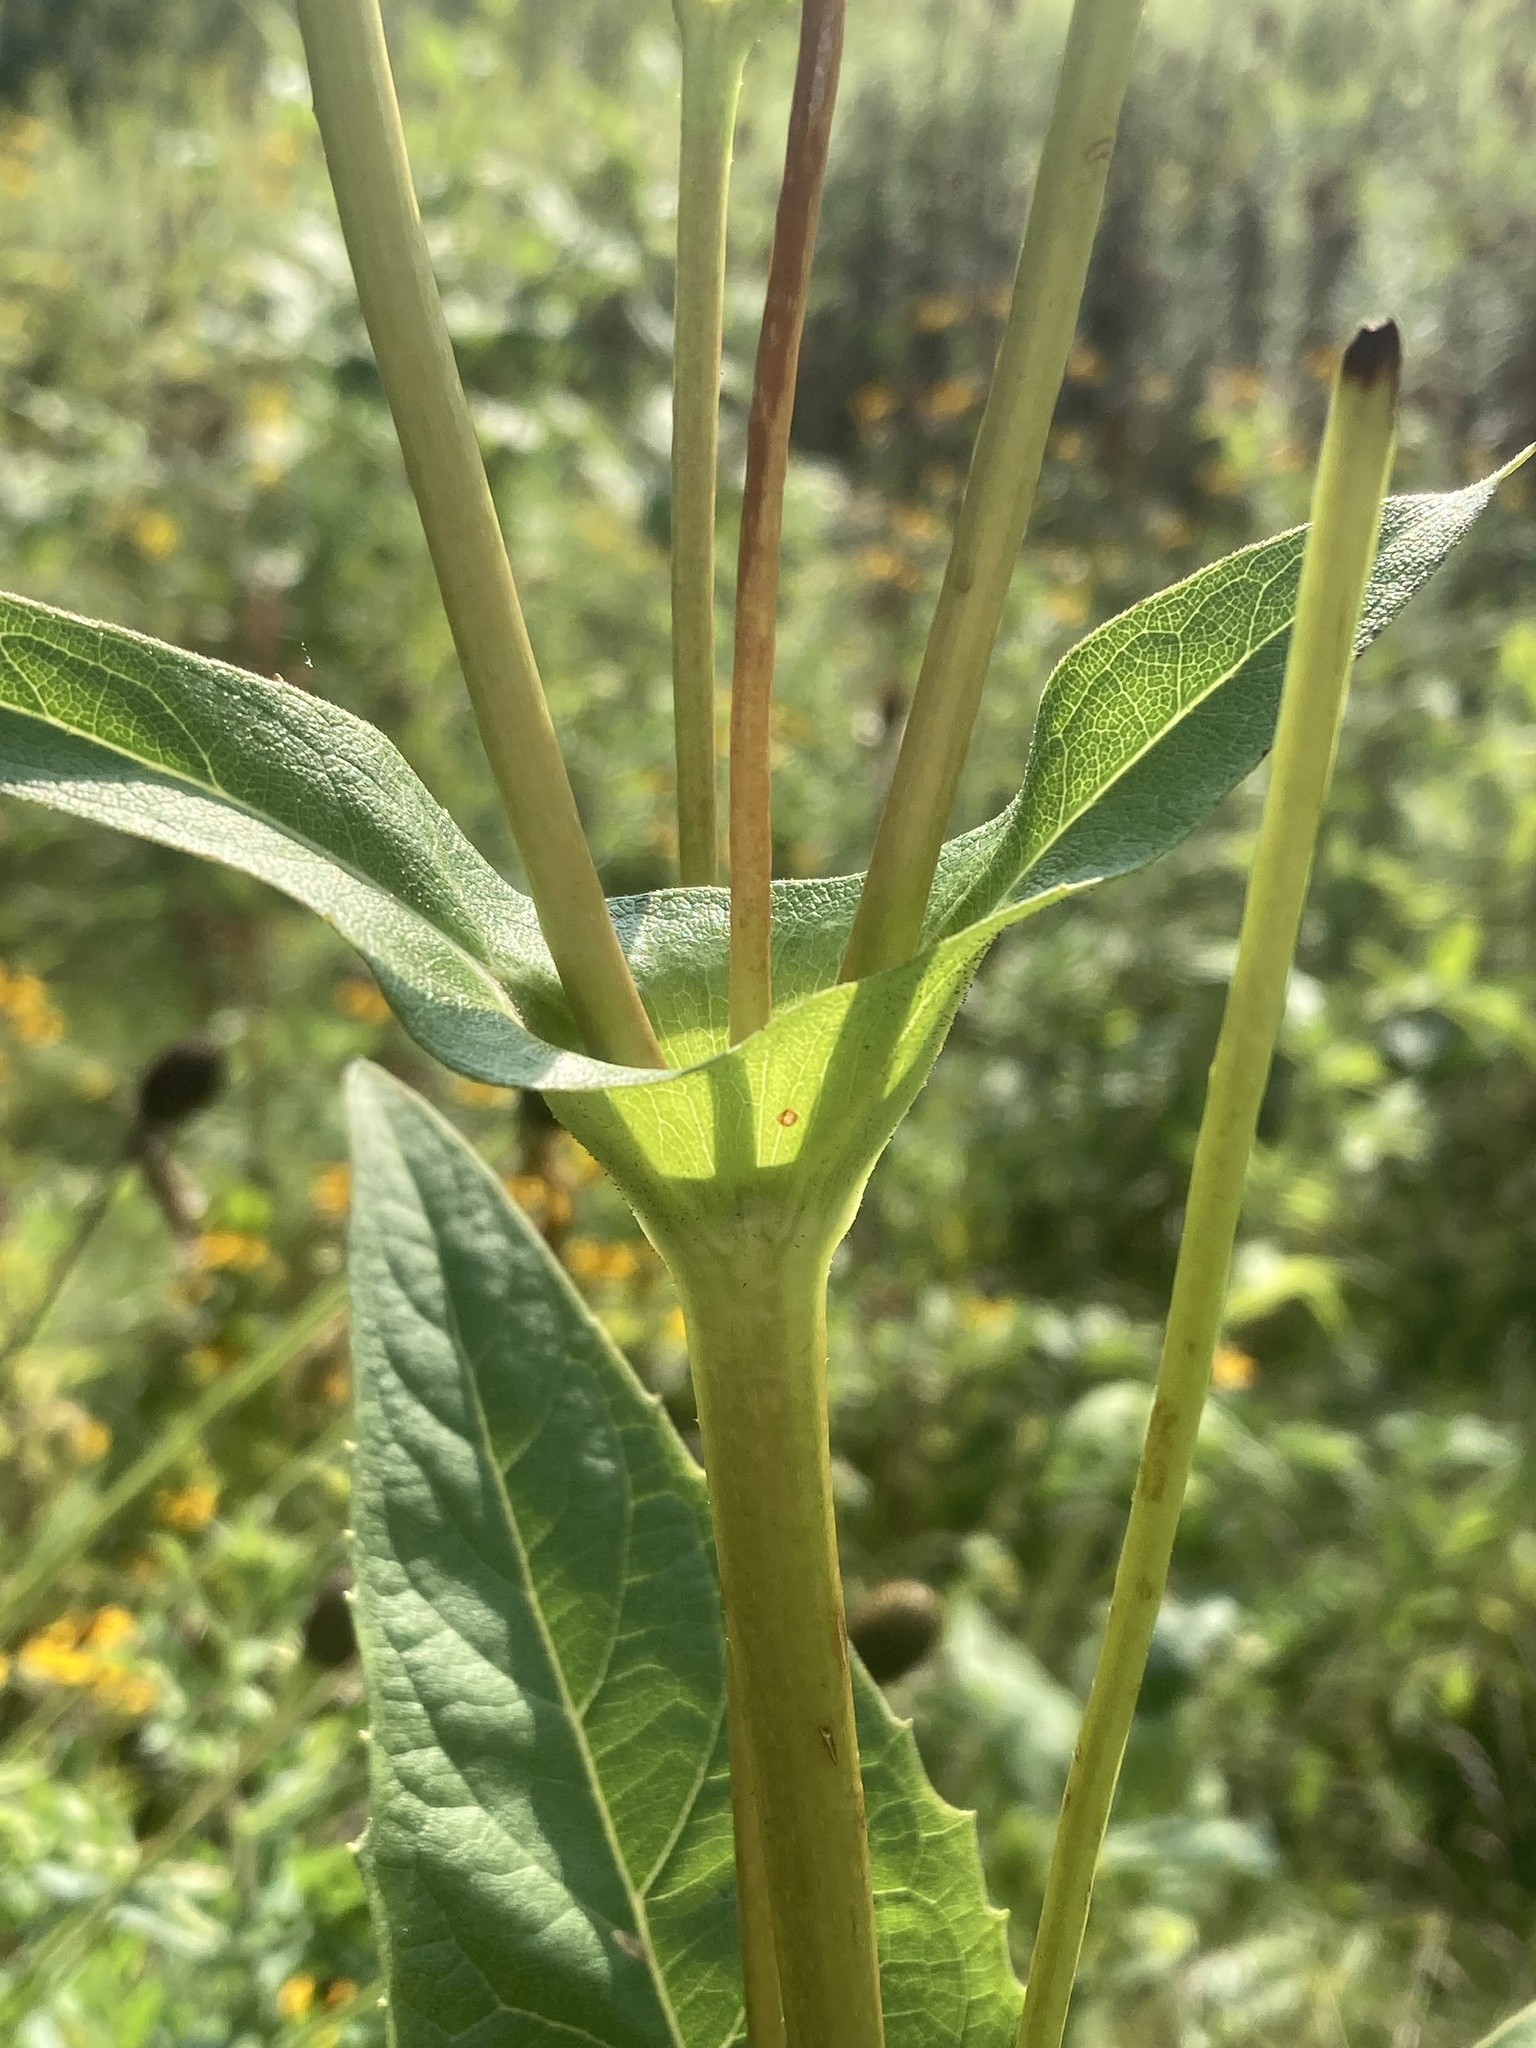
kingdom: Plantae
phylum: Tracheophyta
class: Magnoliopsida
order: Asterales
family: Asteraceae
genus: Silphium
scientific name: Silphium perfoliatum
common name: Cup-plant
